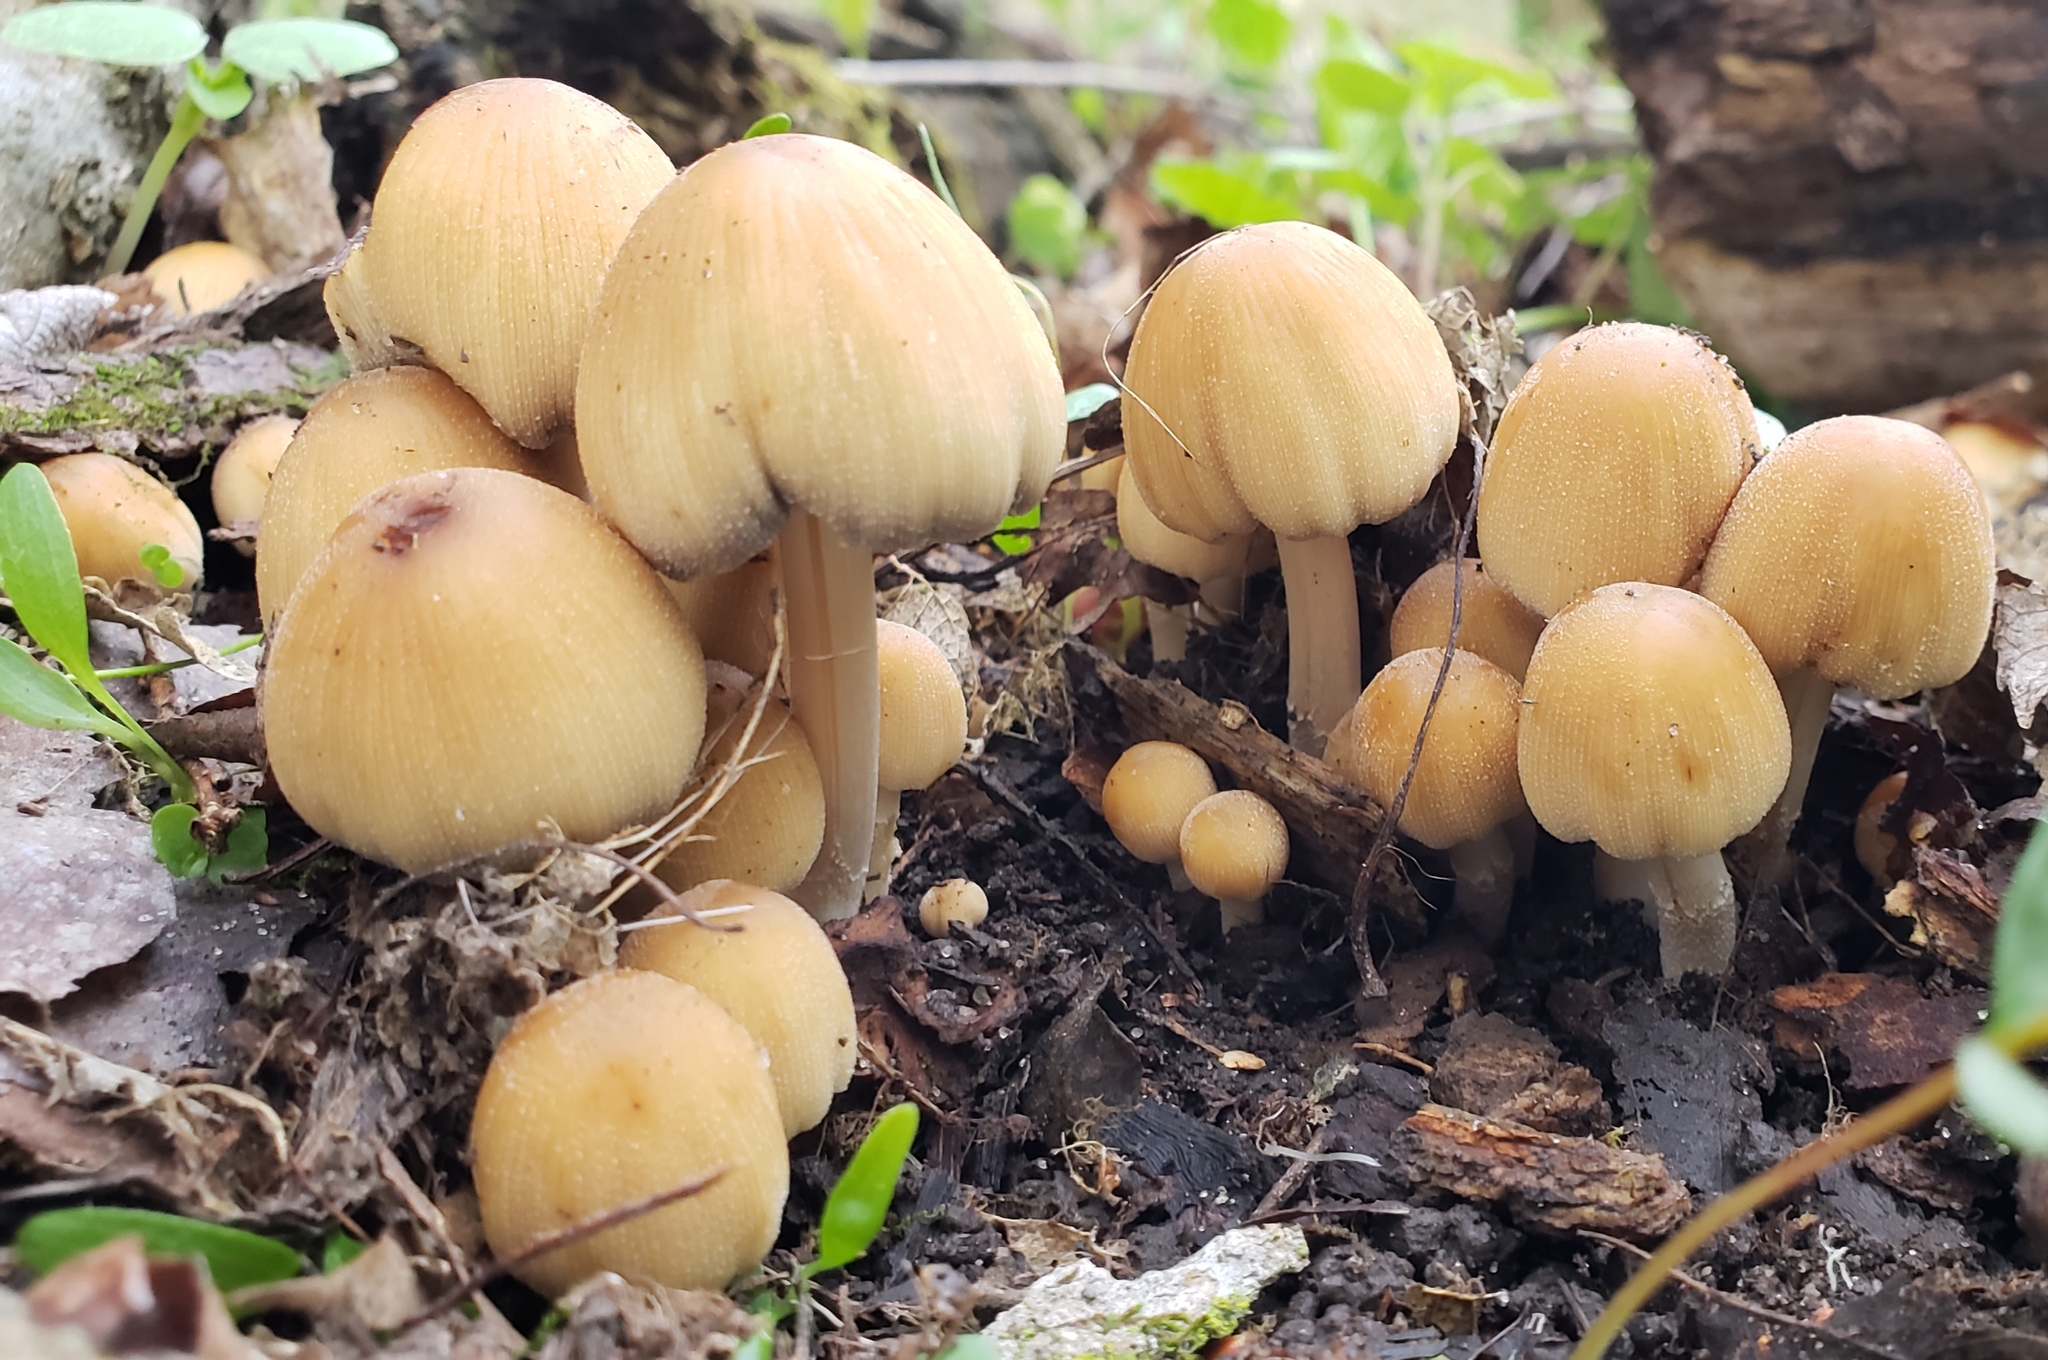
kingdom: Fungi
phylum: Basidiomycota
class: Agaricomycetes
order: Agaricales
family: Psathyrellaceae
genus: Coprinellus
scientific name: Coprinellus micaceus
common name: Glistening ink-cap
